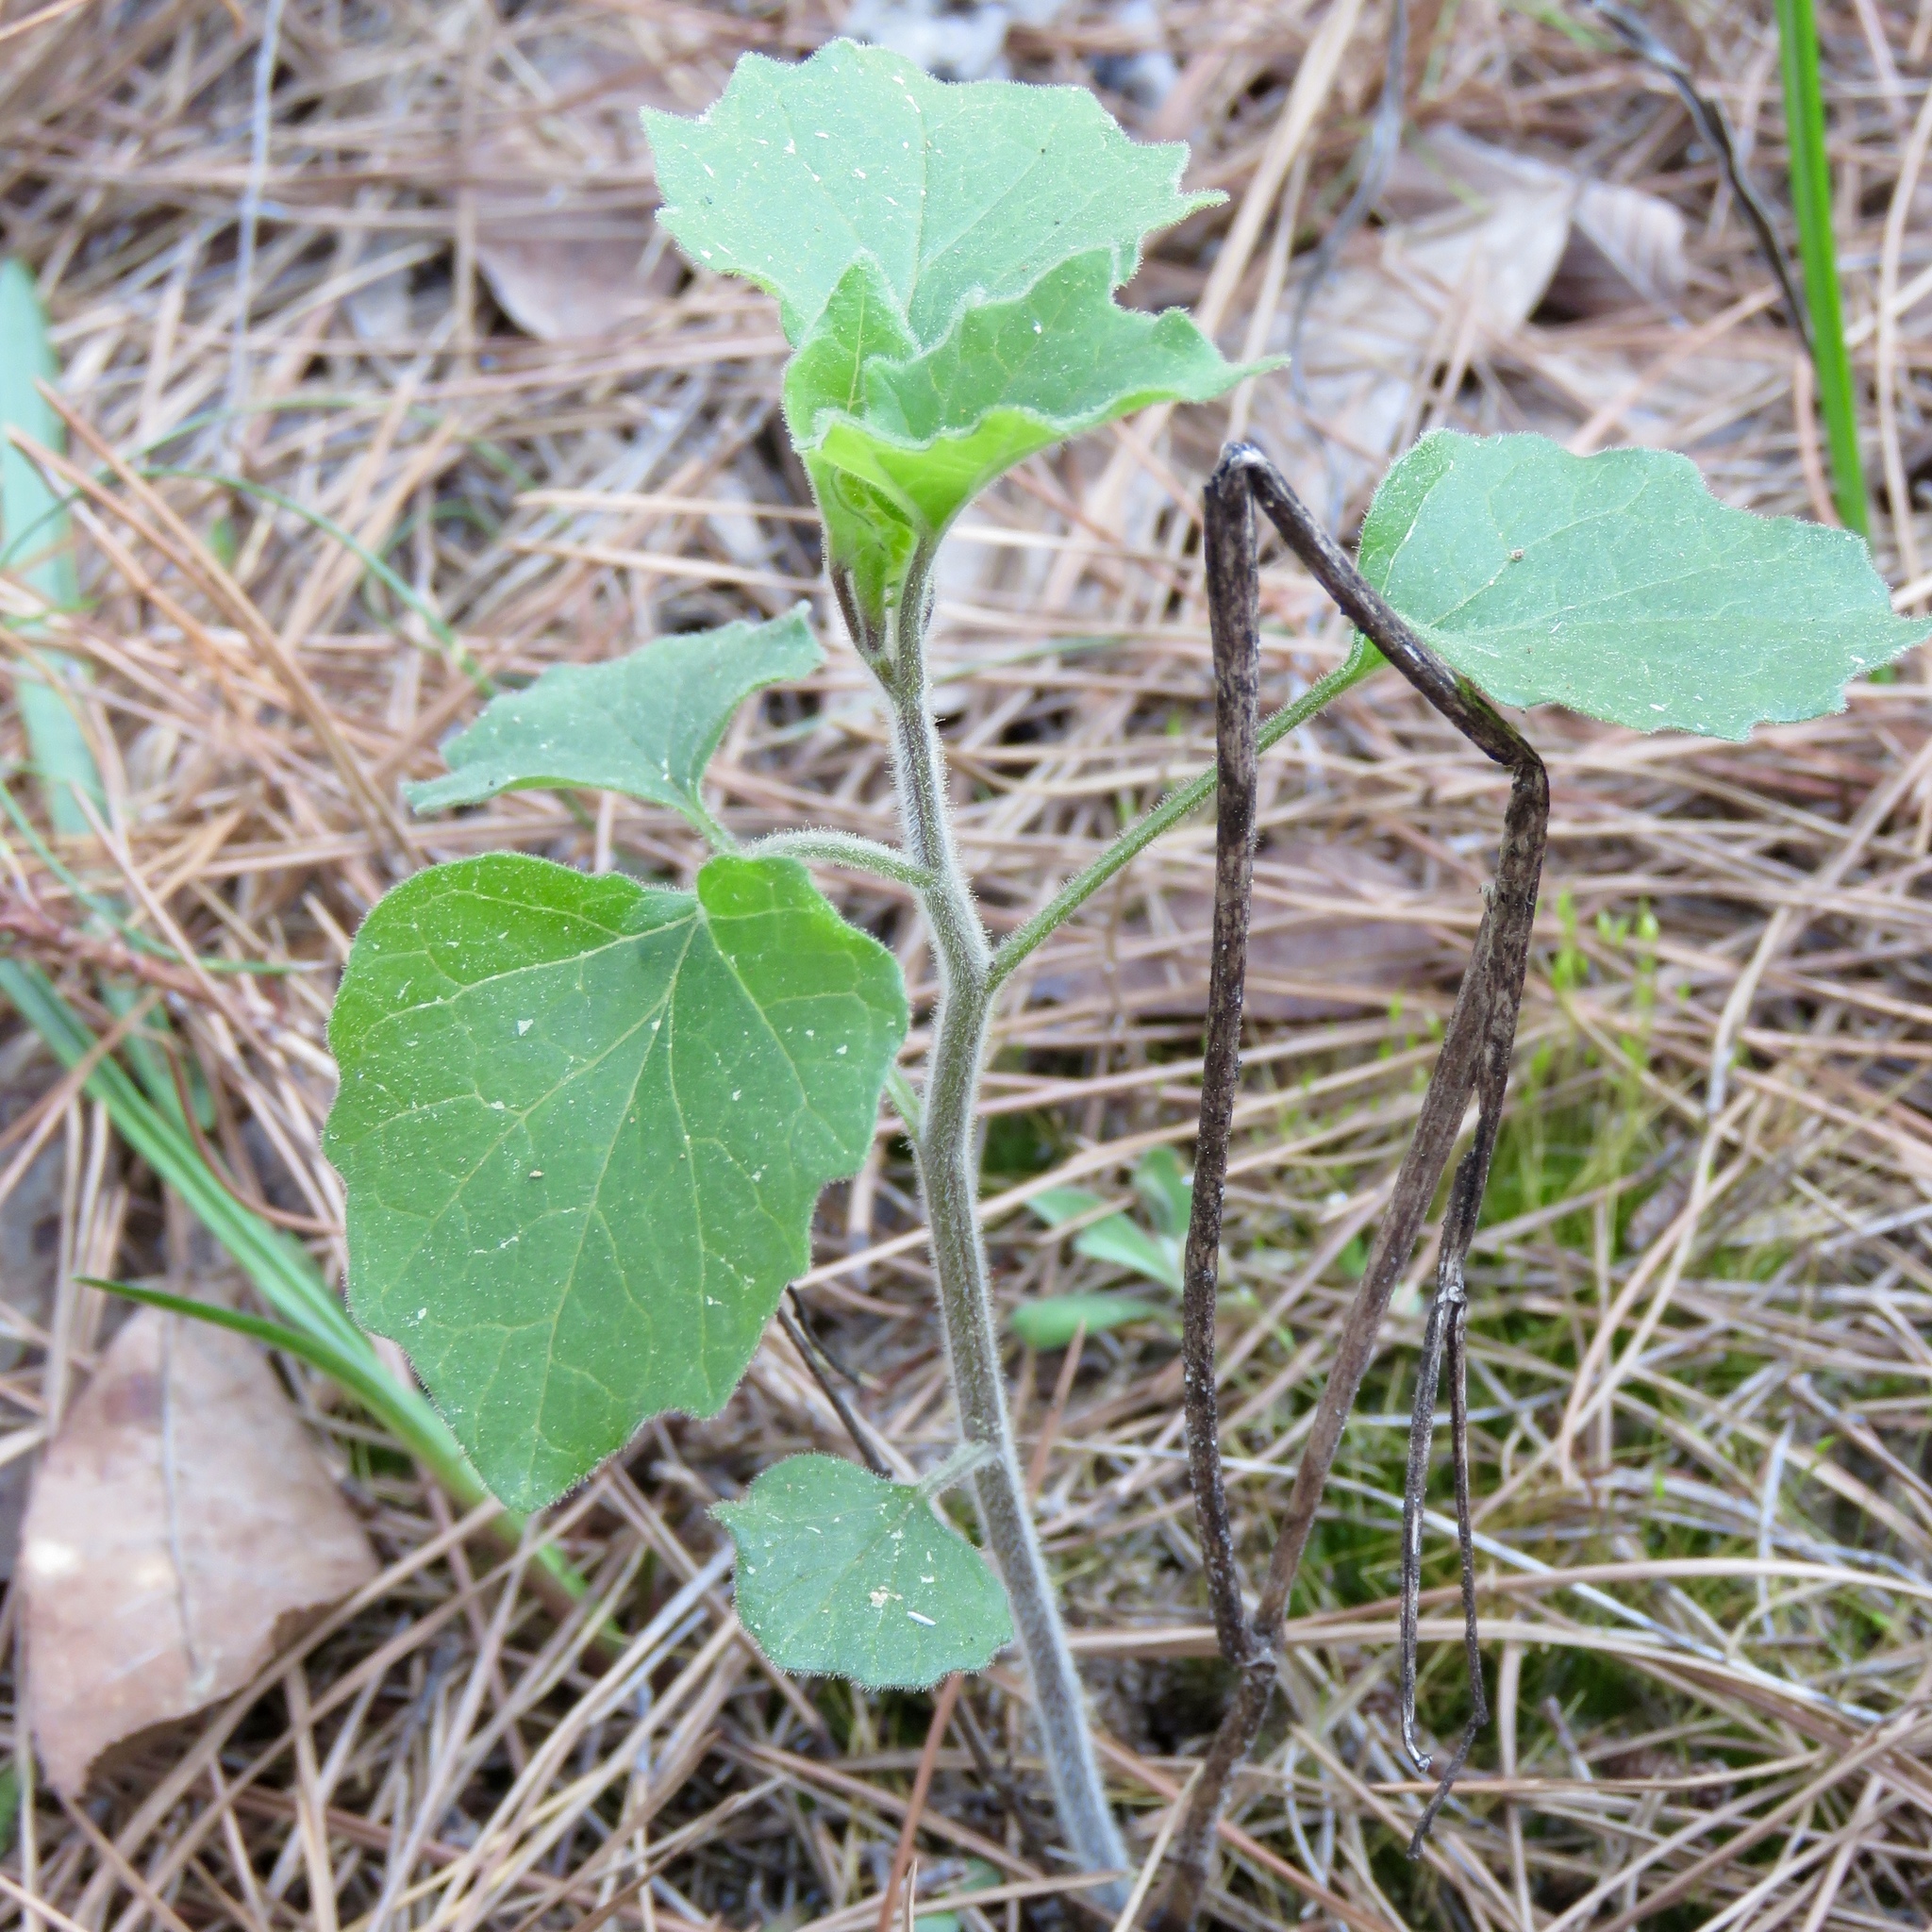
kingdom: Plantae
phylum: Tracheophyta
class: Magnoliopsida
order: Solanales
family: Solanaceae
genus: Physalis
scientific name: Physalis heterophylla
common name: Clammy ground-cherry
